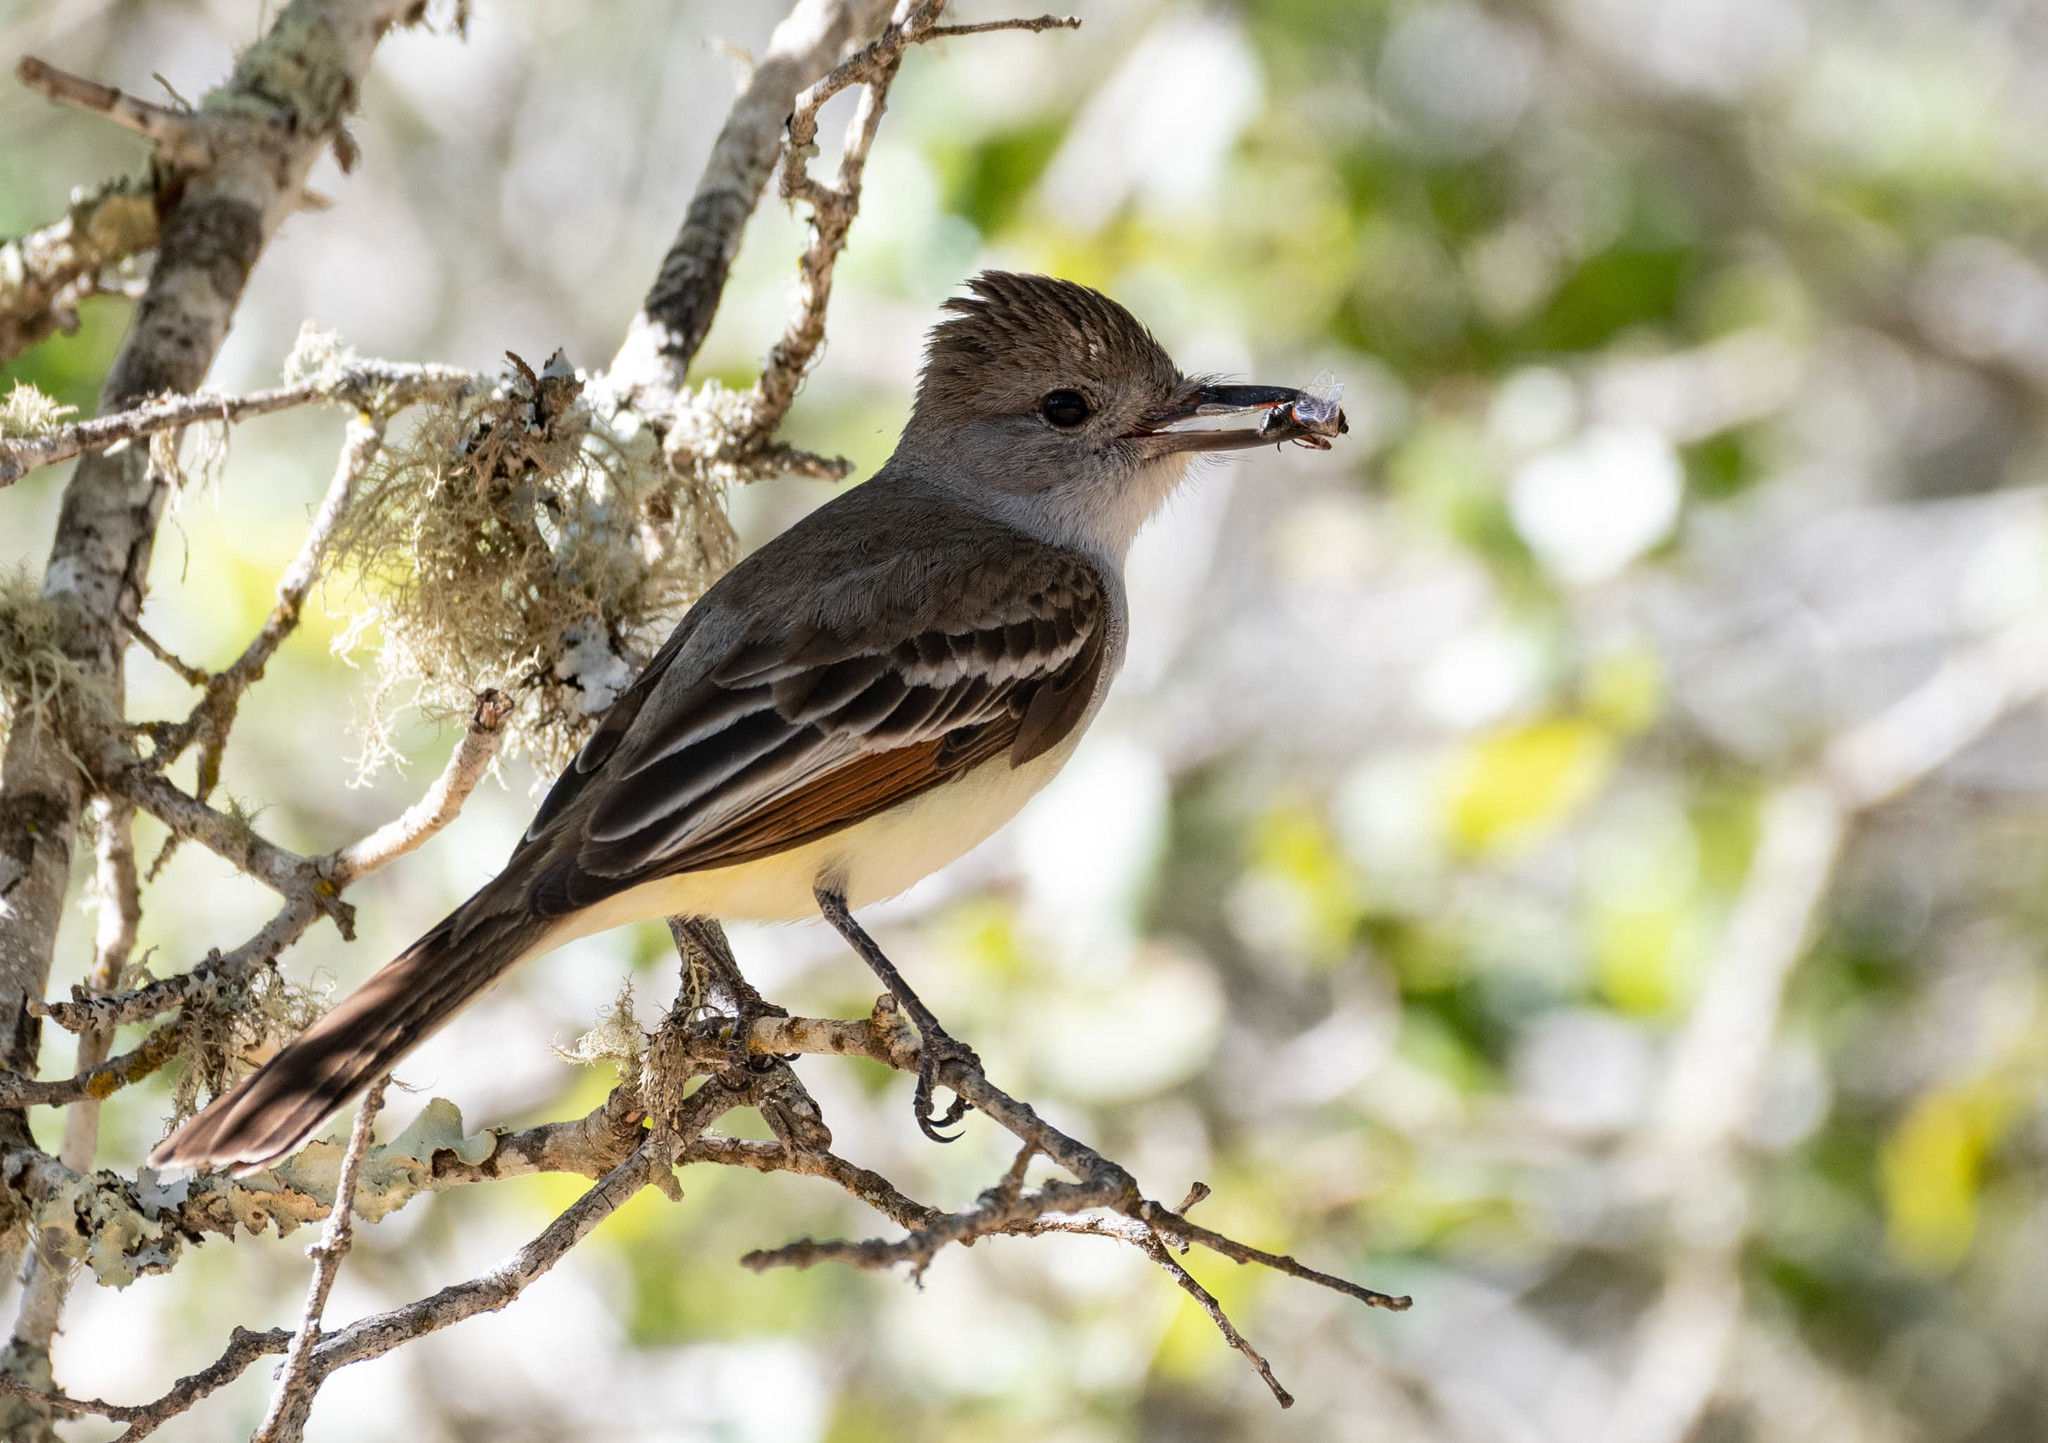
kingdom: Animalia
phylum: Chordata
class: Aves
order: Passeriformes
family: Tyrannidae
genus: Myiarchus
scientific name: Myiarchus cinerascens
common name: Ash-throated flycatcher
